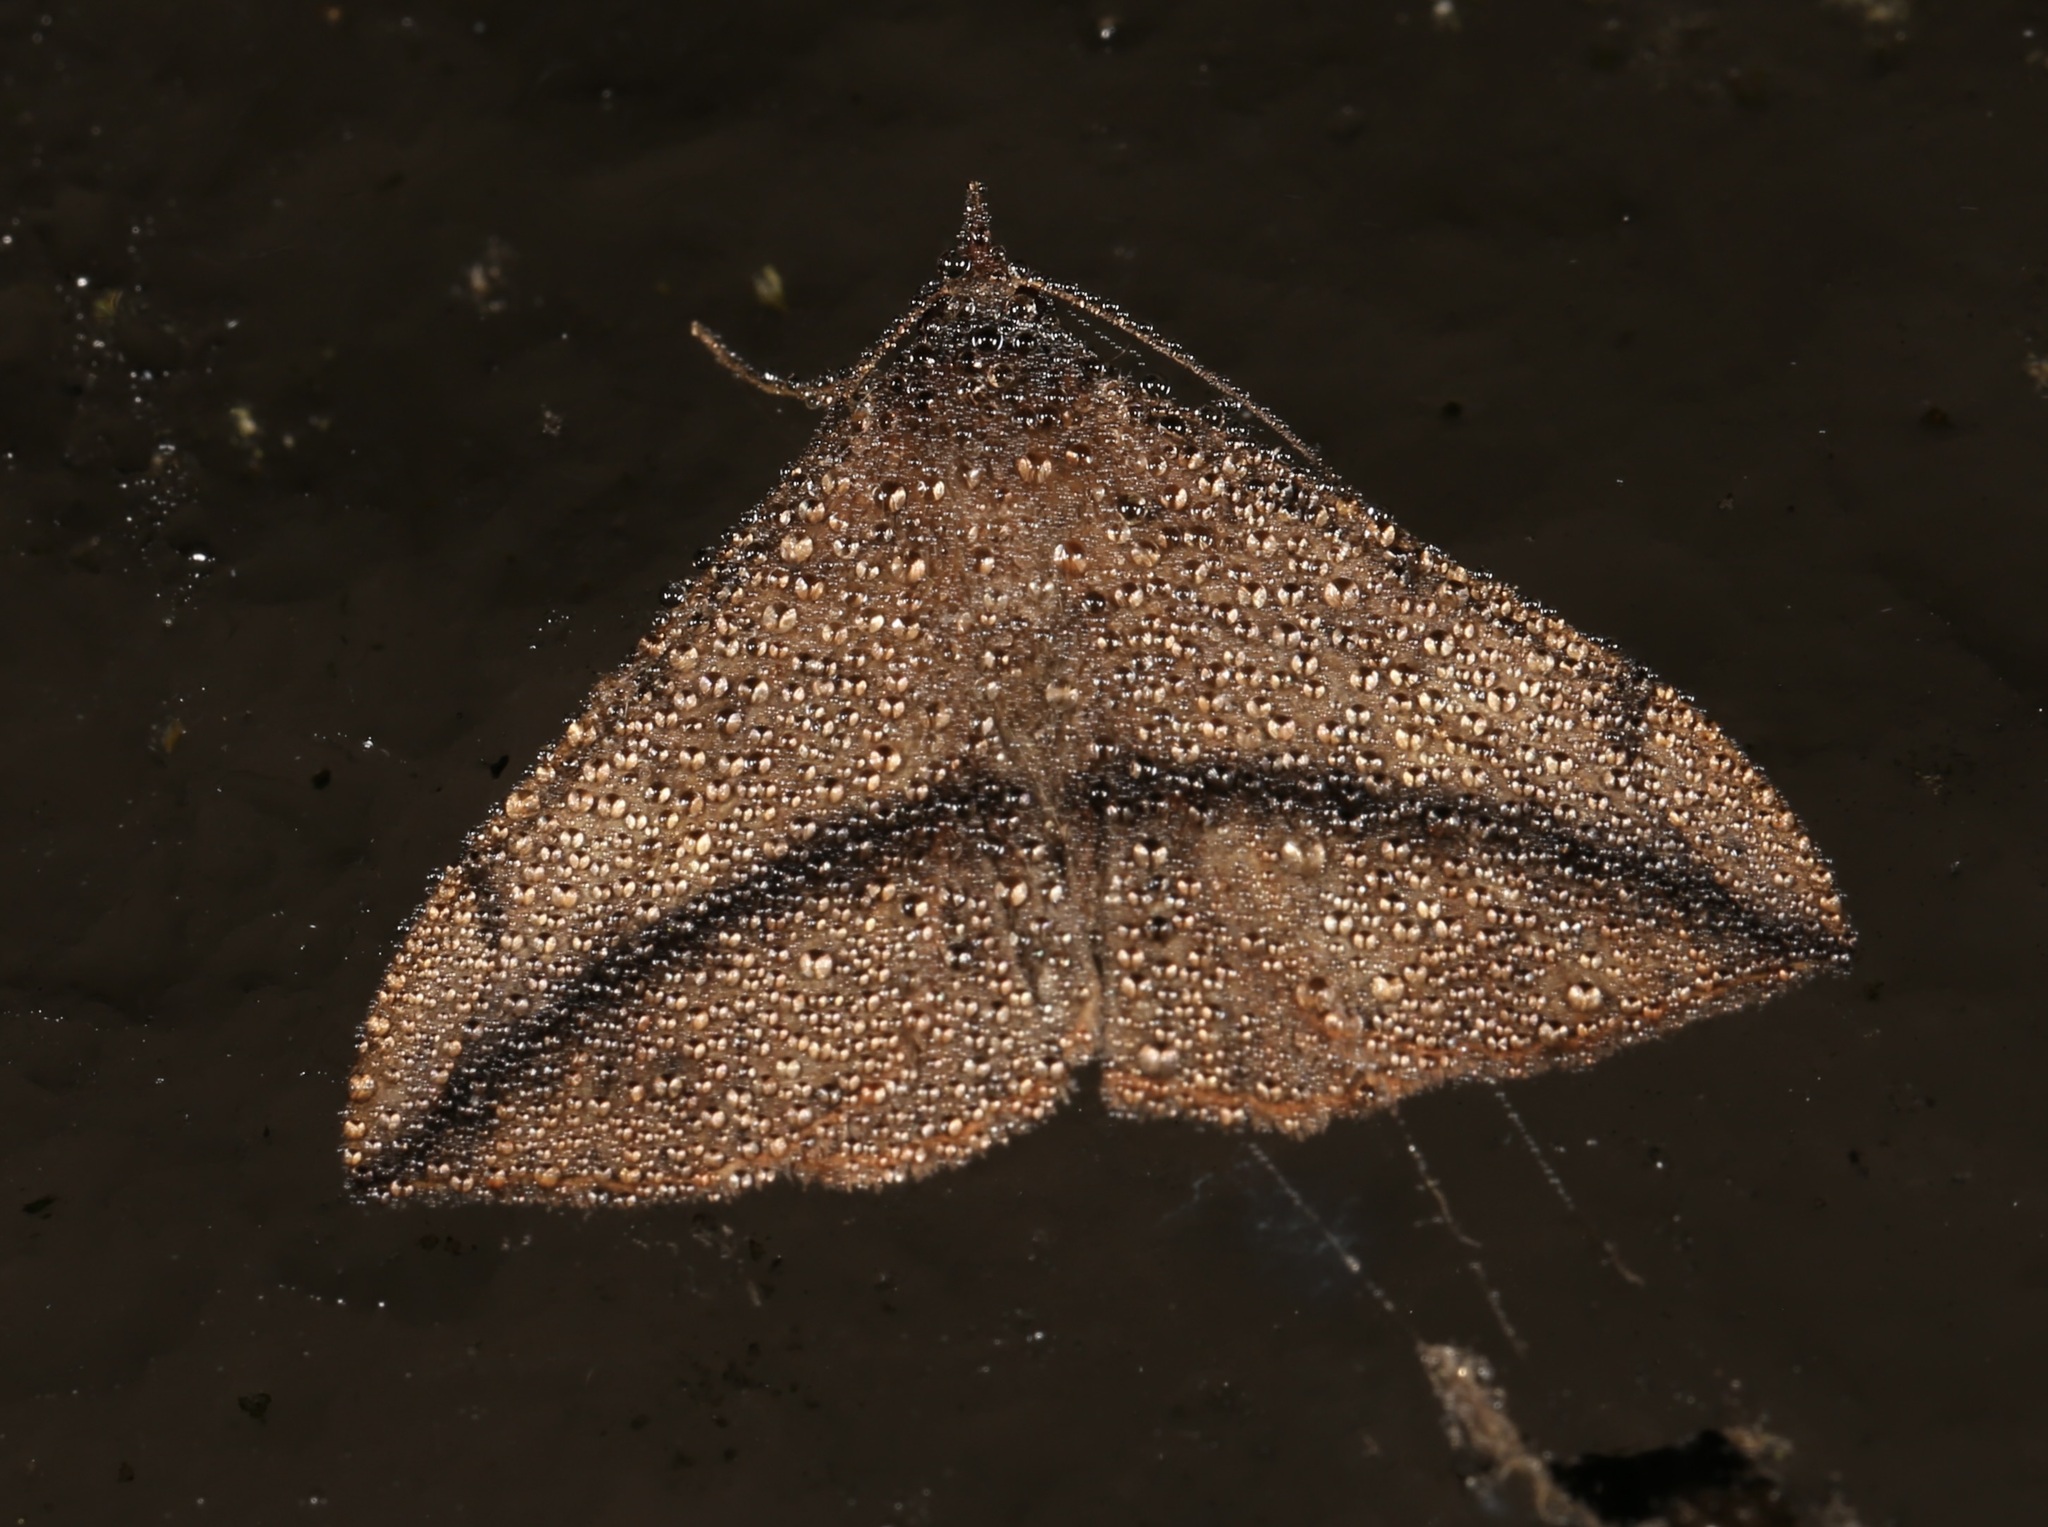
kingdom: Animalia
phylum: Arthropoda
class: Insecta
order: Lepidoptera
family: Erebidae
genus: Anticarsia
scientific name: Anticarsia gemmatalis
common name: Cutworm moth
